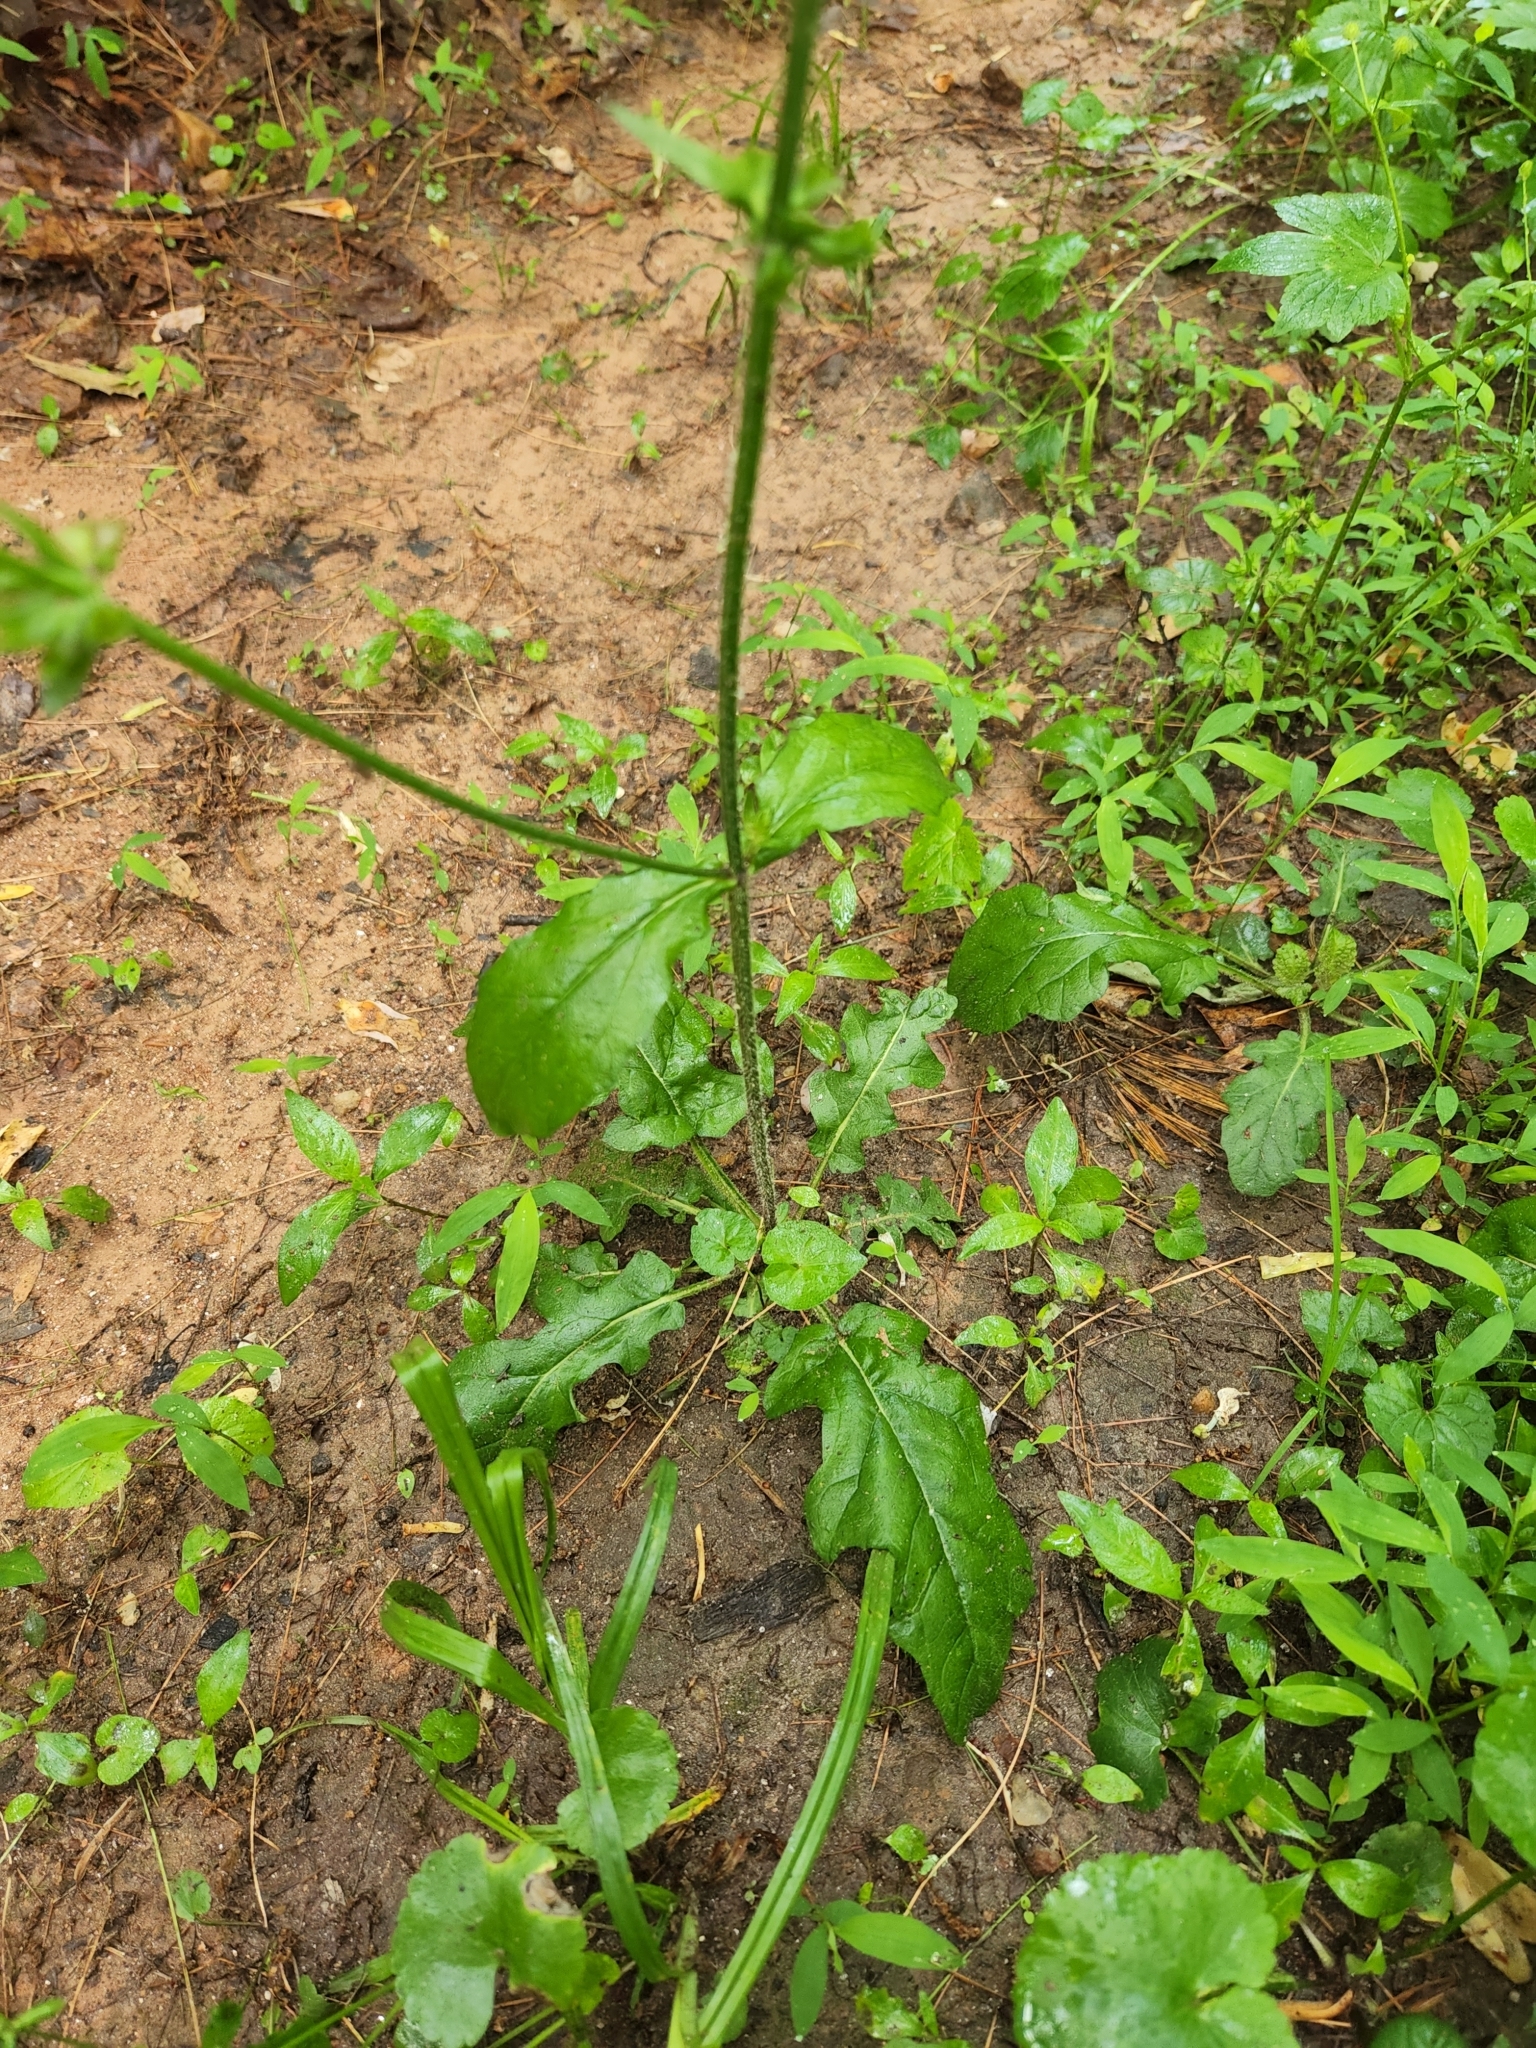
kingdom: Plantae
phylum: Tracheophyta
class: Magnoliopsida
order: Lamiales
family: Lamiaceae
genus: Salvia
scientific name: Salvia lyrata
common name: Cancerweed
